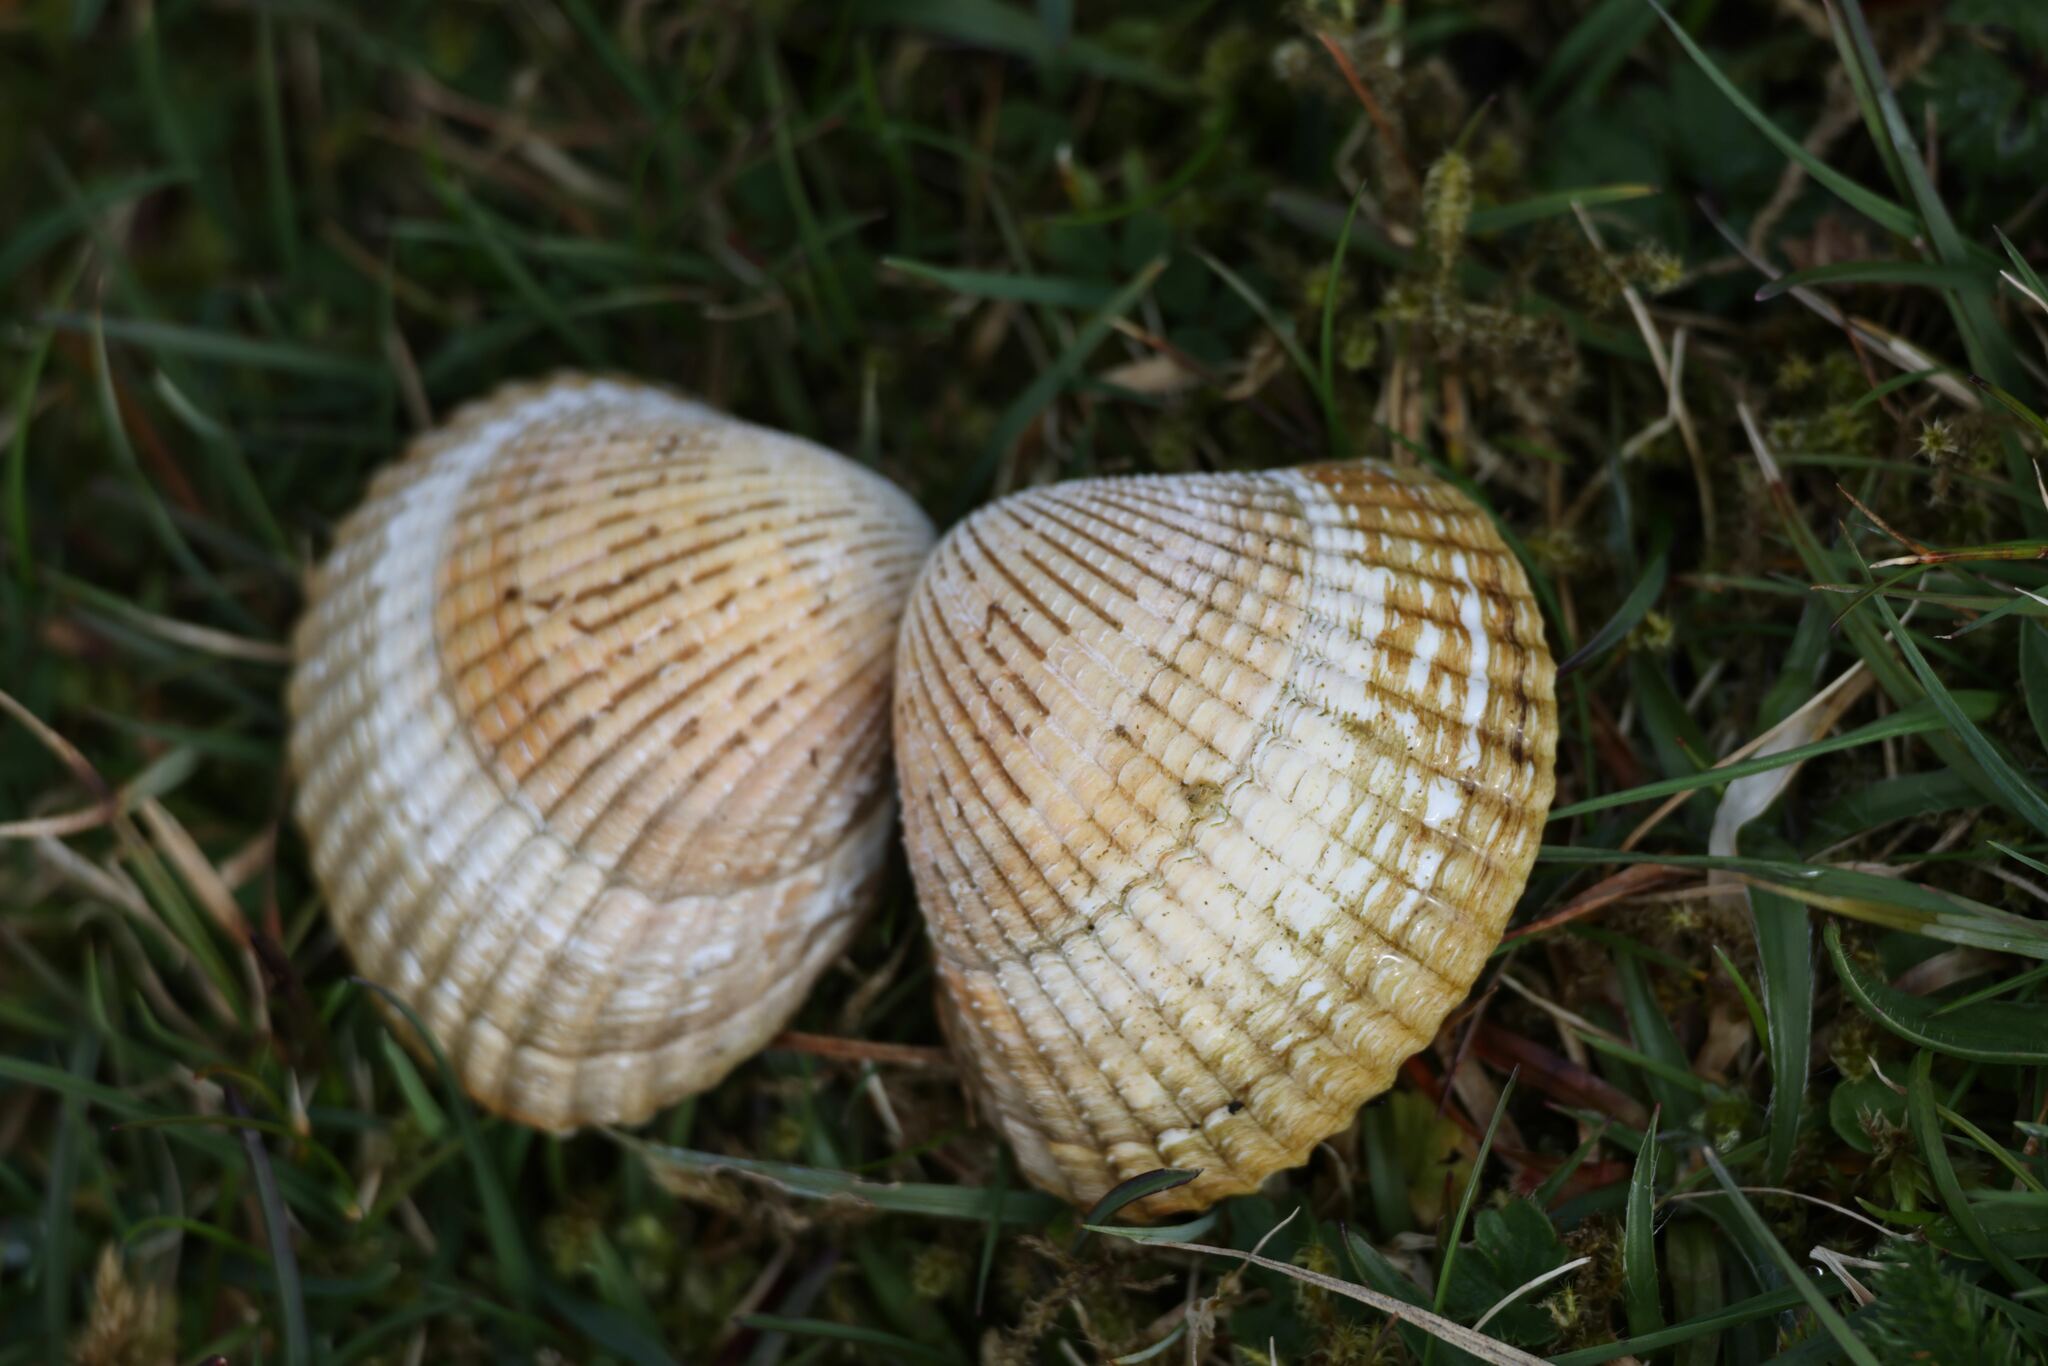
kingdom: Animalia
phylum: Mollusca
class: Bivalvia
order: Cardiida
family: Cardiidae
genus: Cerastoderma
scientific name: Cerastoderma edule
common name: Common cockle
